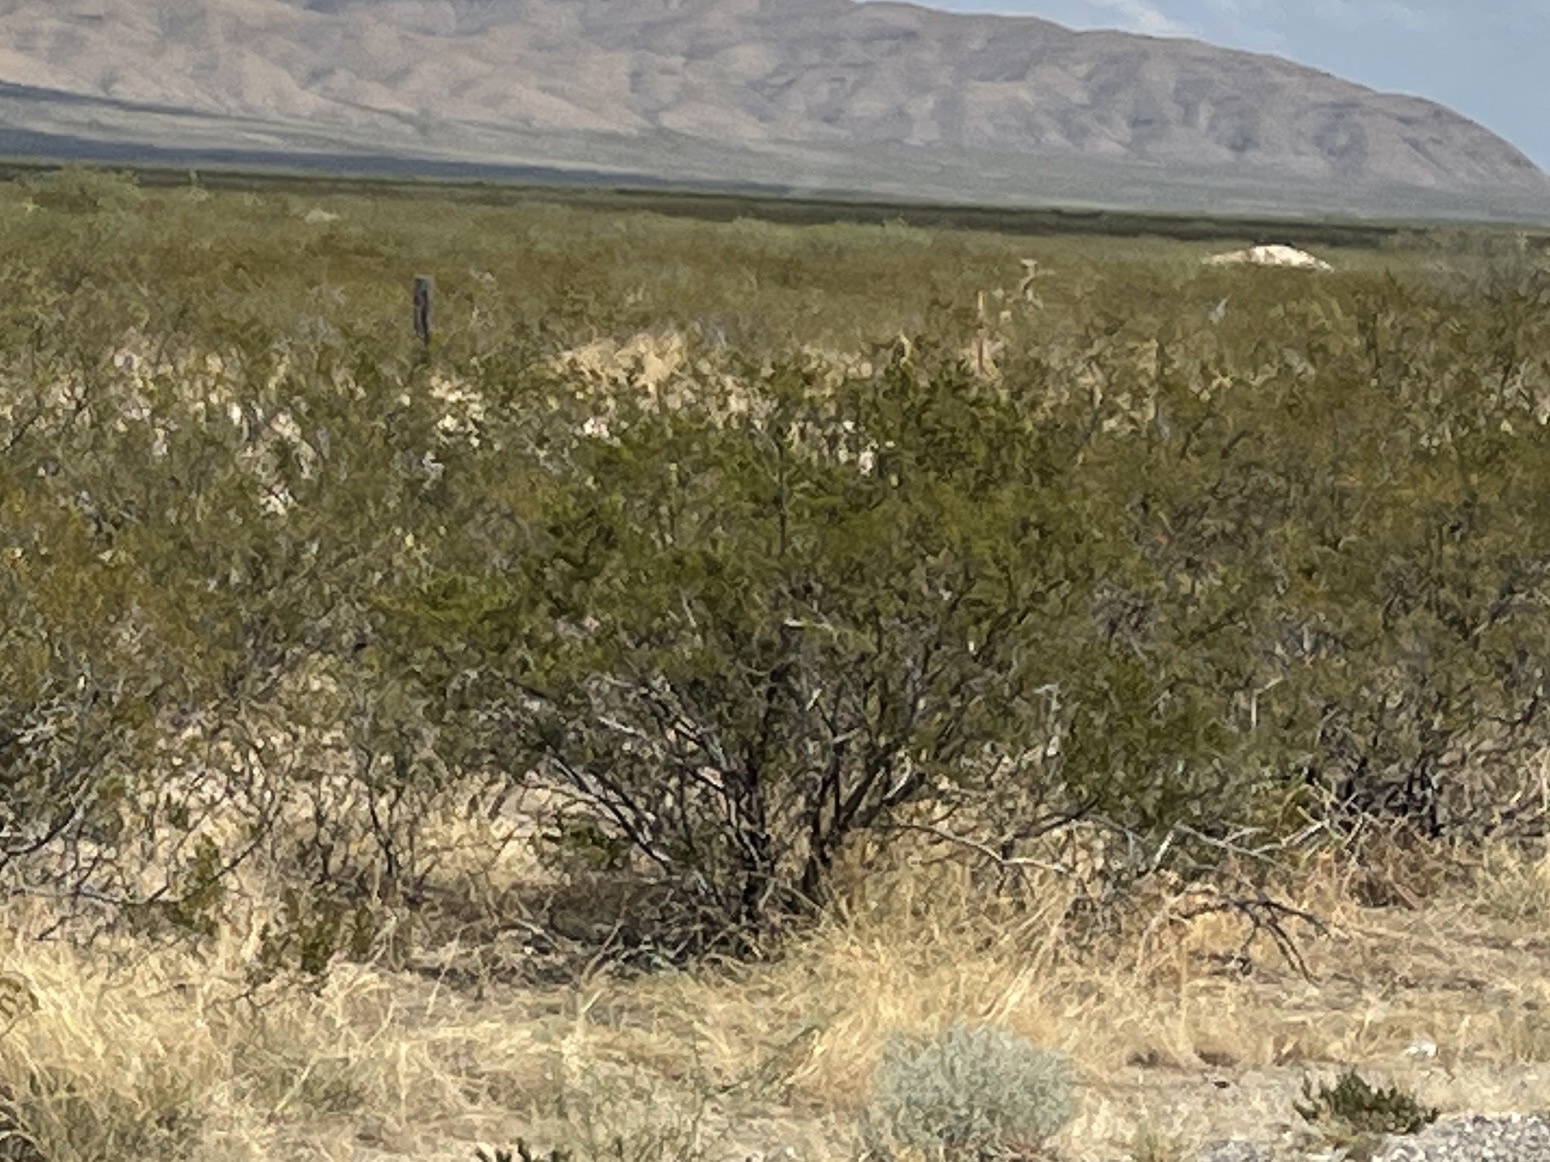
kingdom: Plantae
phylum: Tracheophyta
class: Magnoliopsida
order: Zygophyllales
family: Zygophyllaceae
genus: Larrea
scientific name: Larrea tridentata
